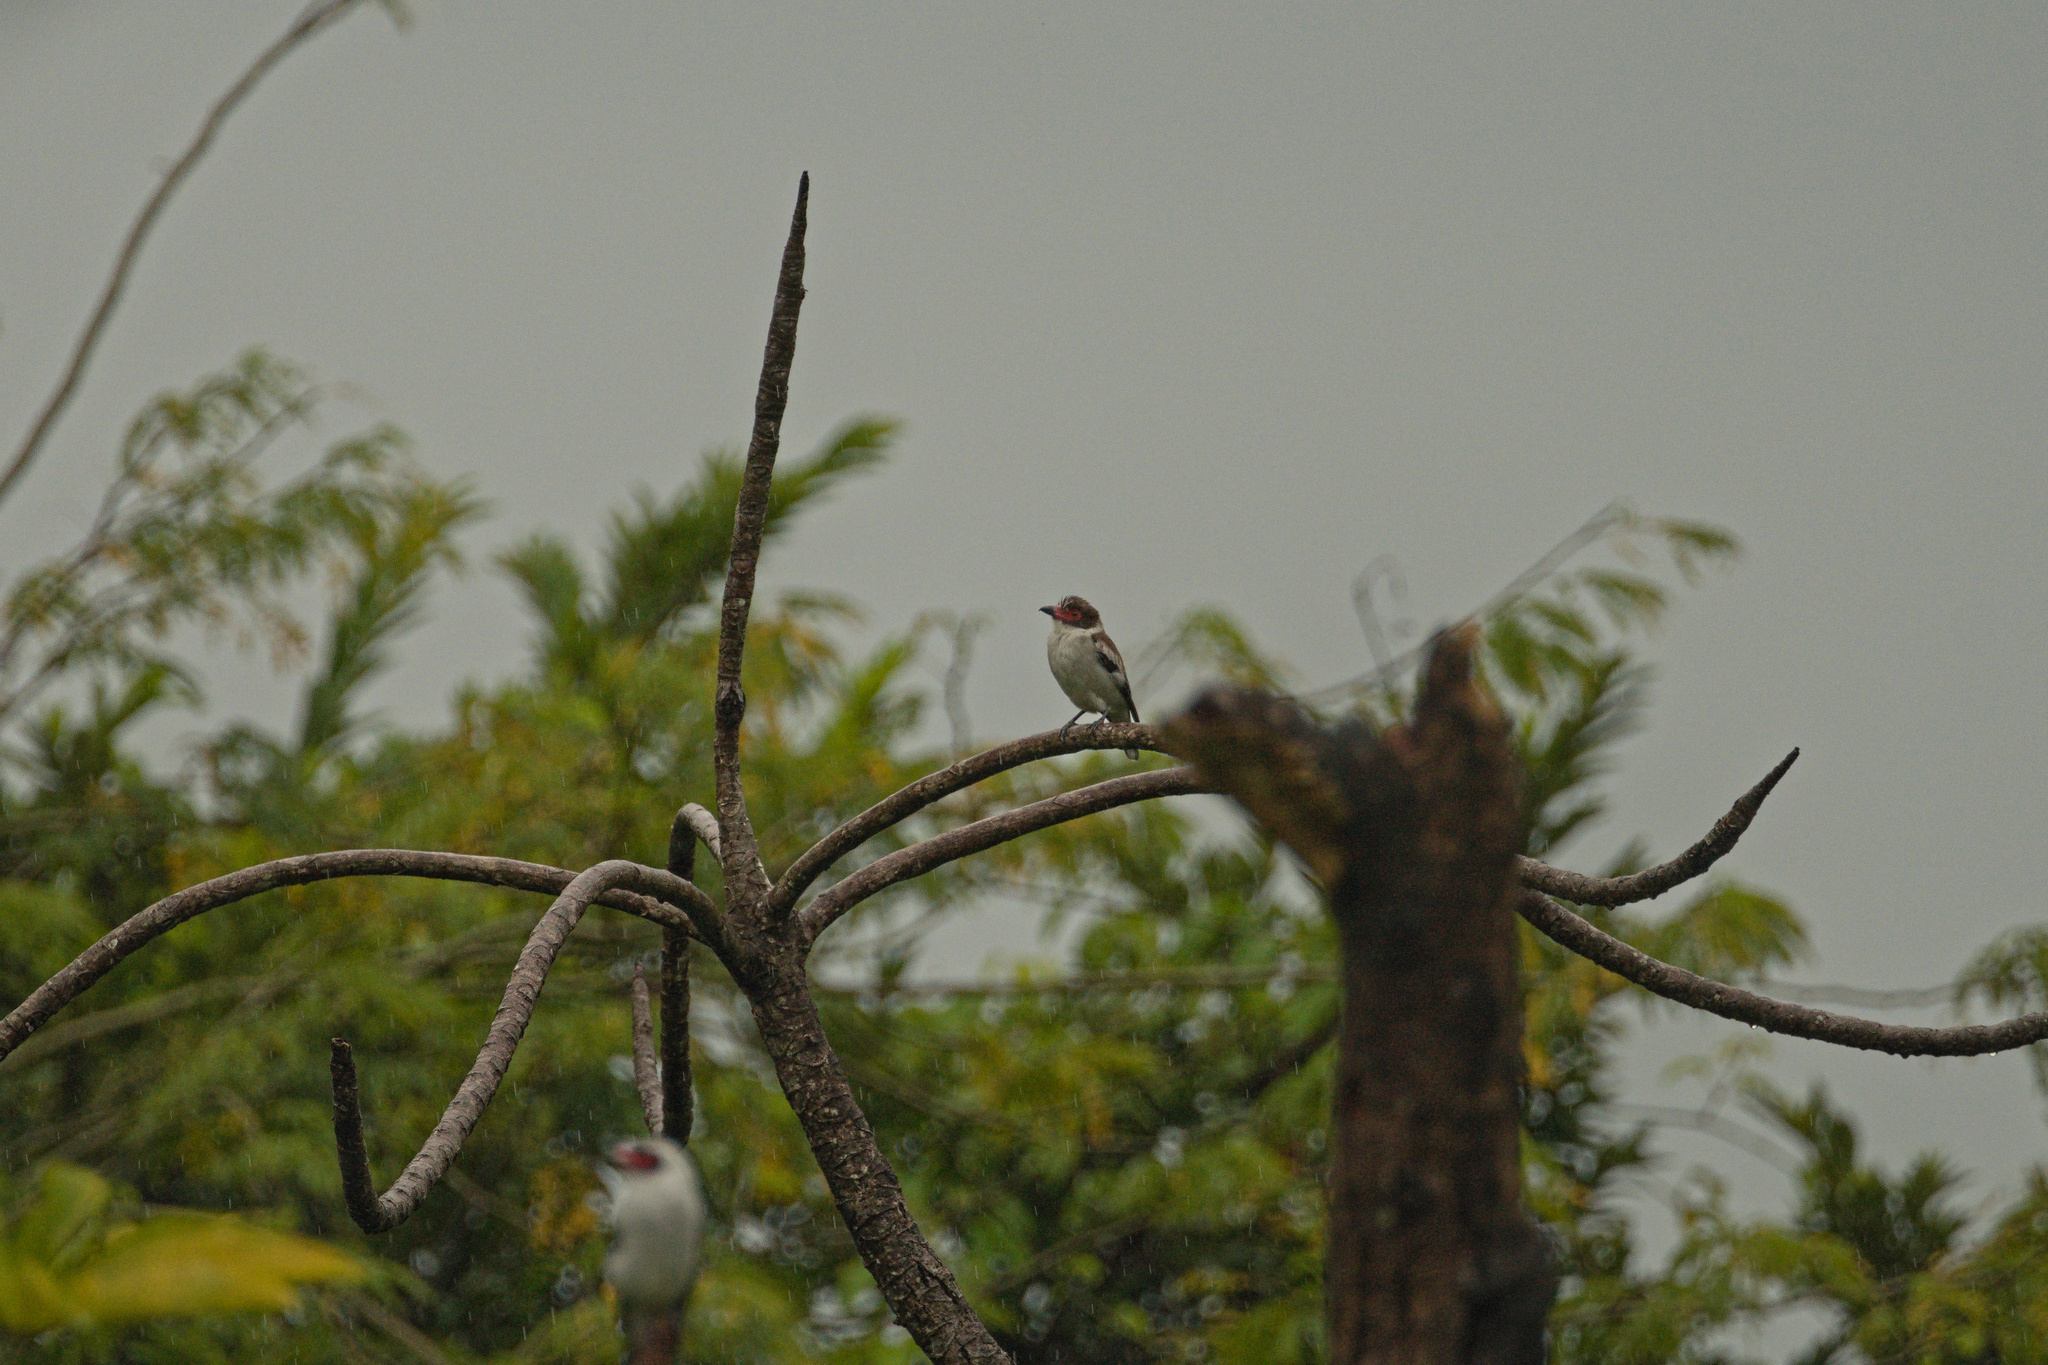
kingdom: Animalia
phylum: Chordata
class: Aves
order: Passeriformes
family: Cotingidae
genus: Tityra
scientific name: Tityra semifasciata
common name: Masked tityra
